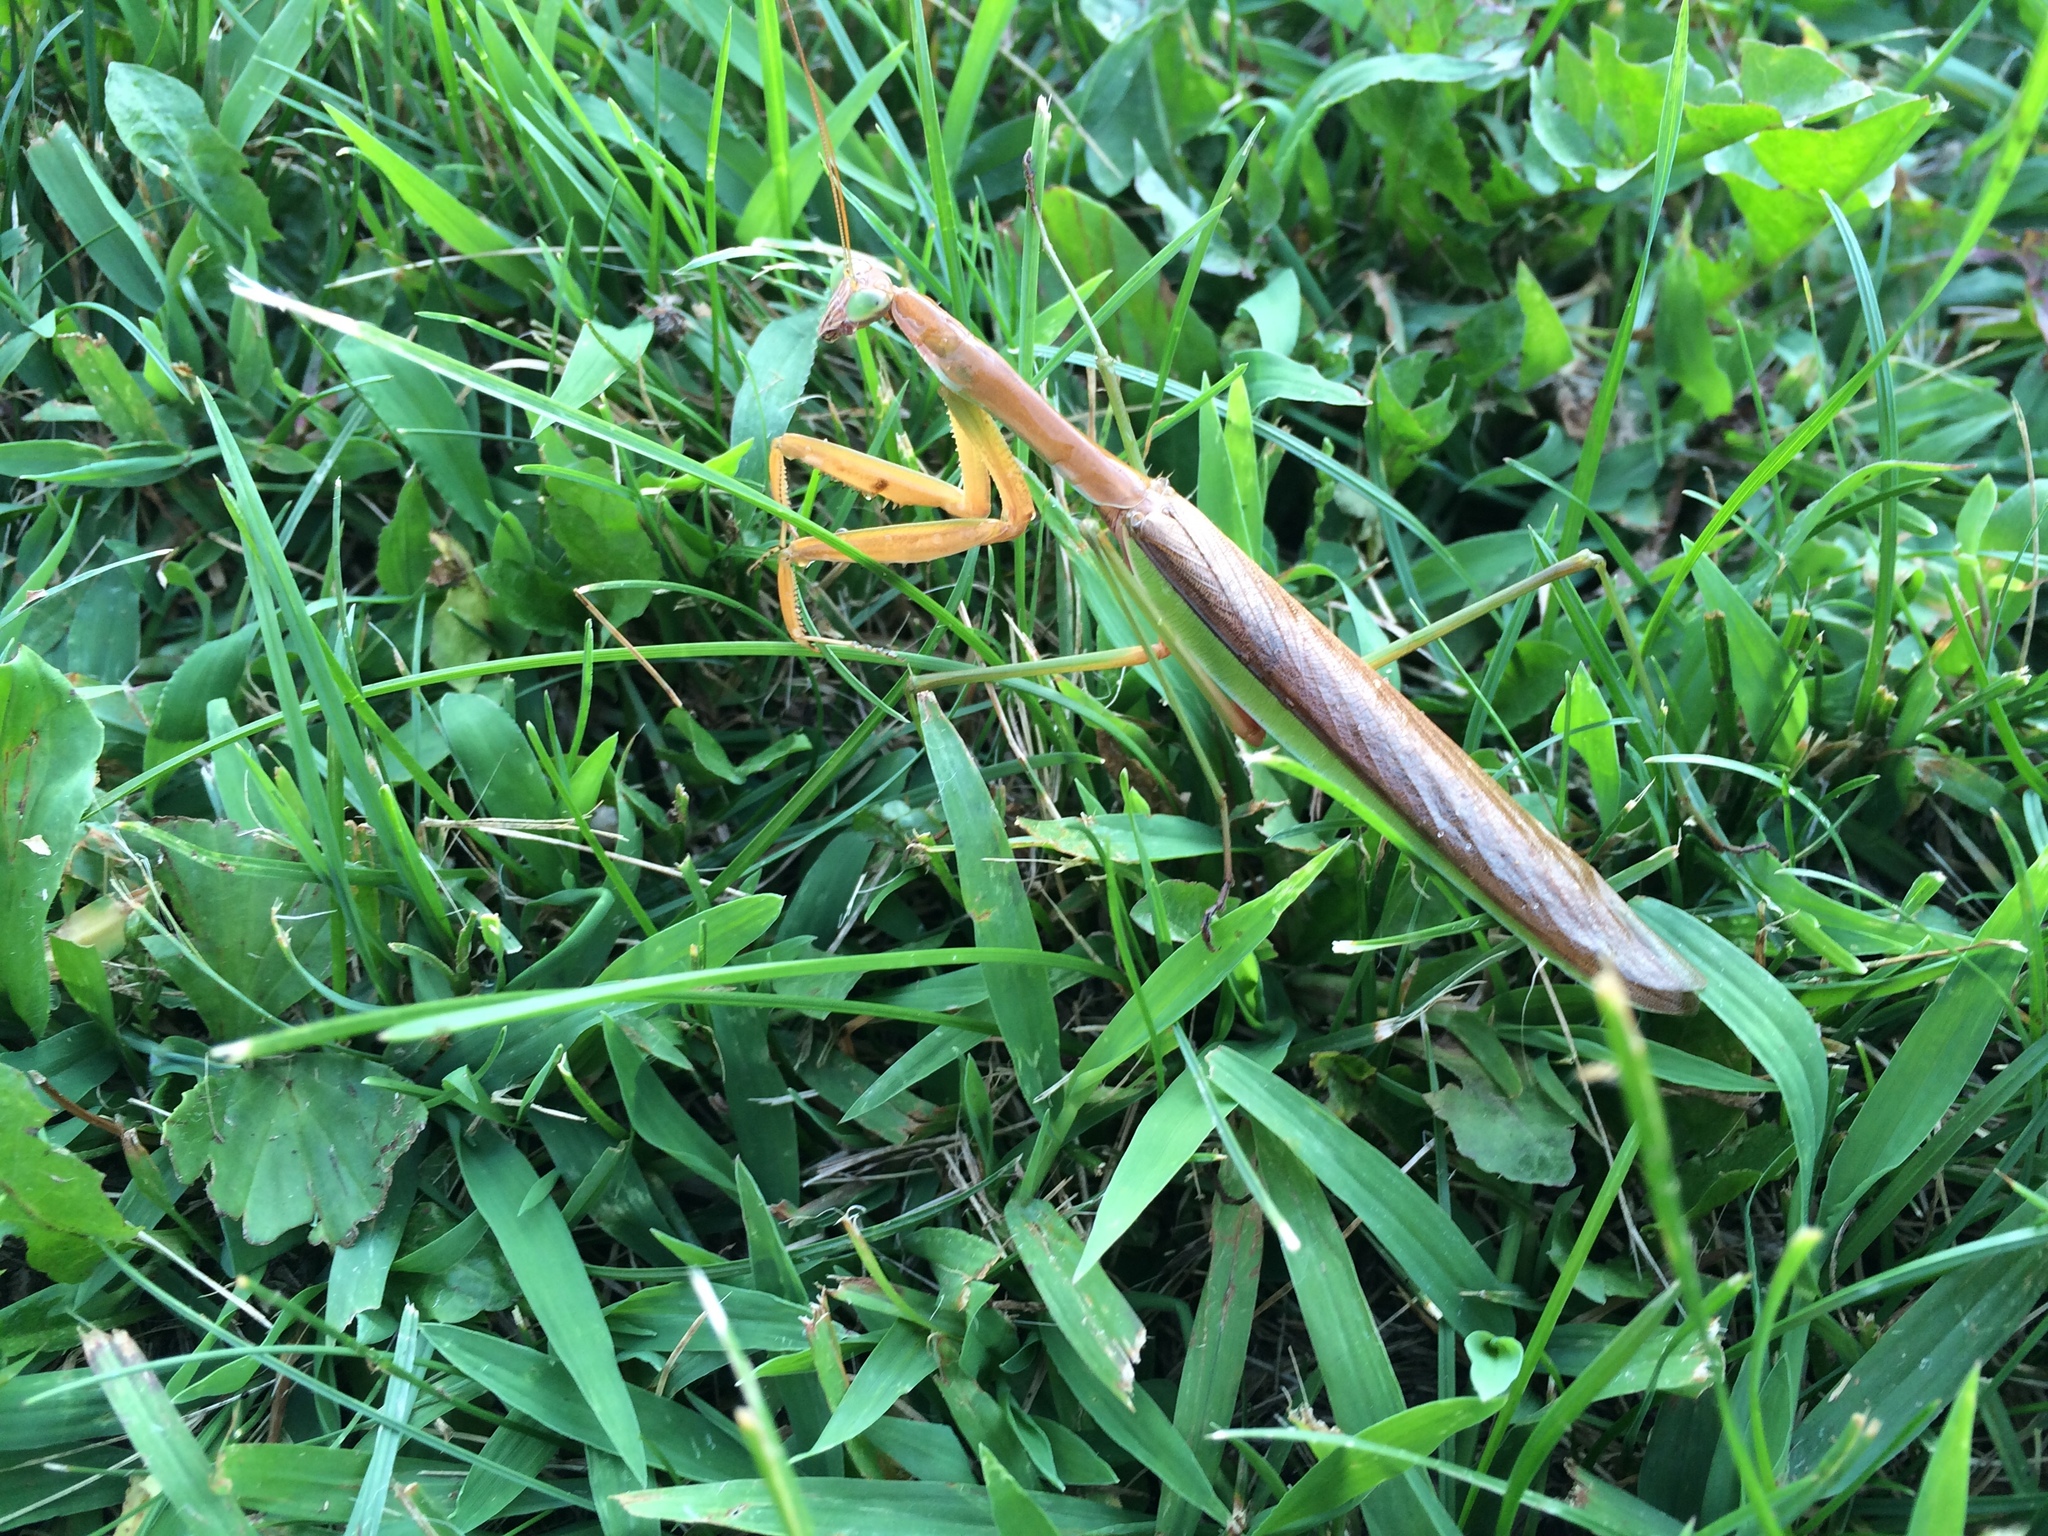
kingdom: Animalia
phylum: Arthropoda
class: Insecta
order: Mantodea
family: Mantidae
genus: Tenodera
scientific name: Tenodera sinensis
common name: Chinese mantis
